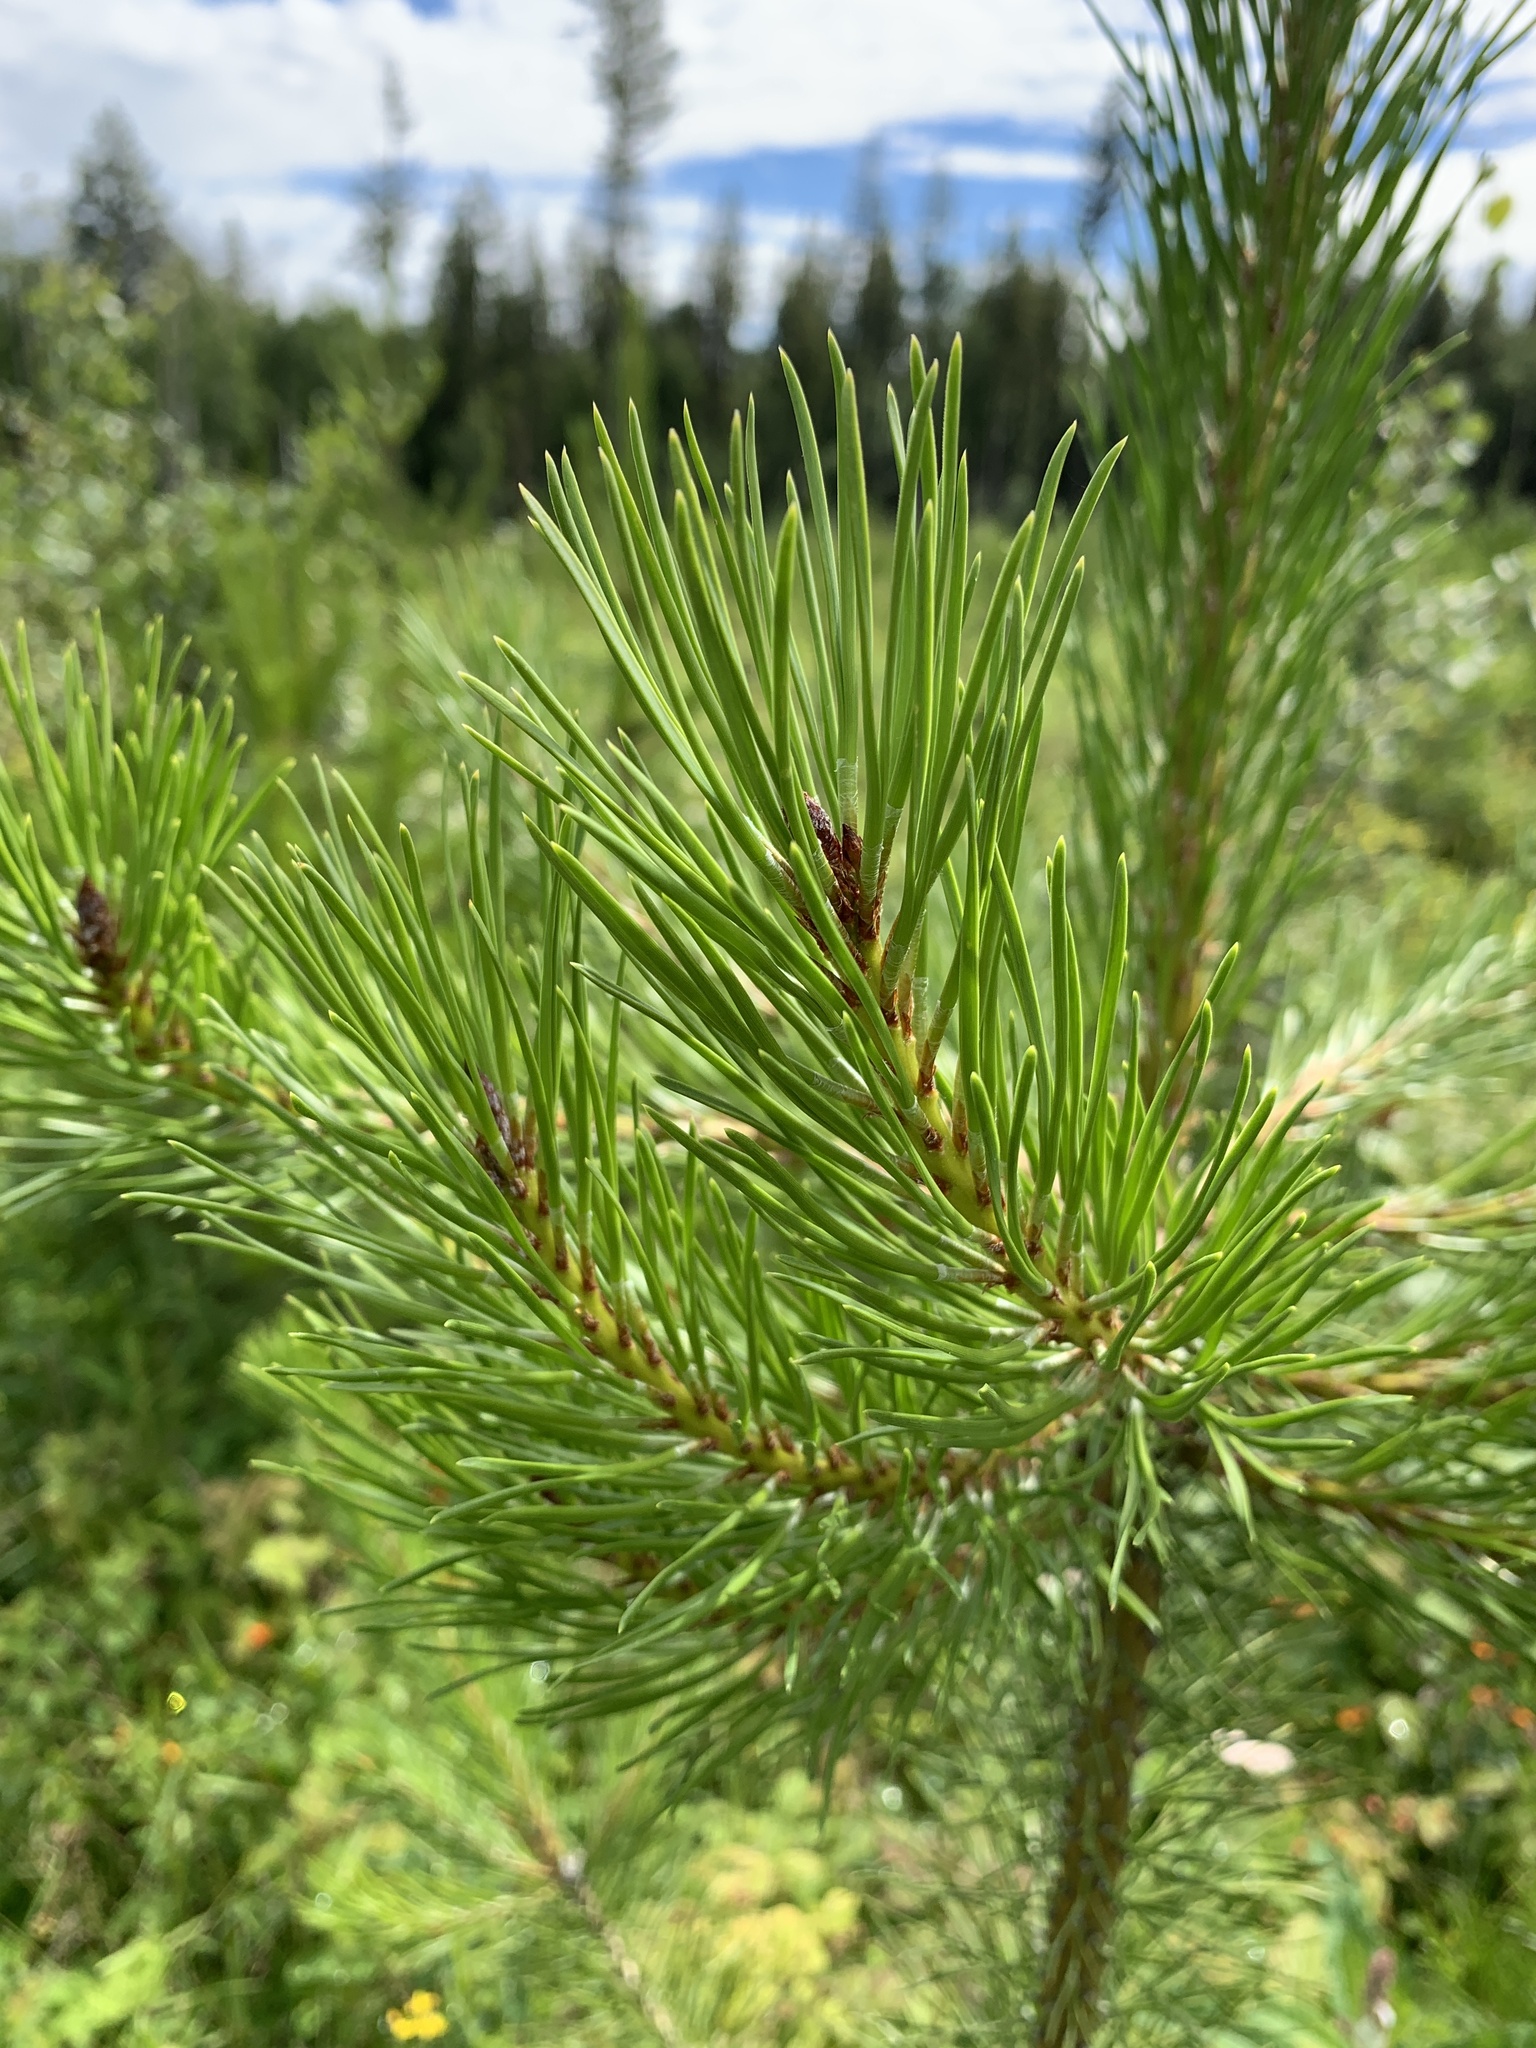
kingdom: Plantae
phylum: Tracheophyta
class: Pinopsida
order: Pinales
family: Pinaceae
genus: Pinus
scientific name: Pinus contorta
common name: Lodgepole pine
